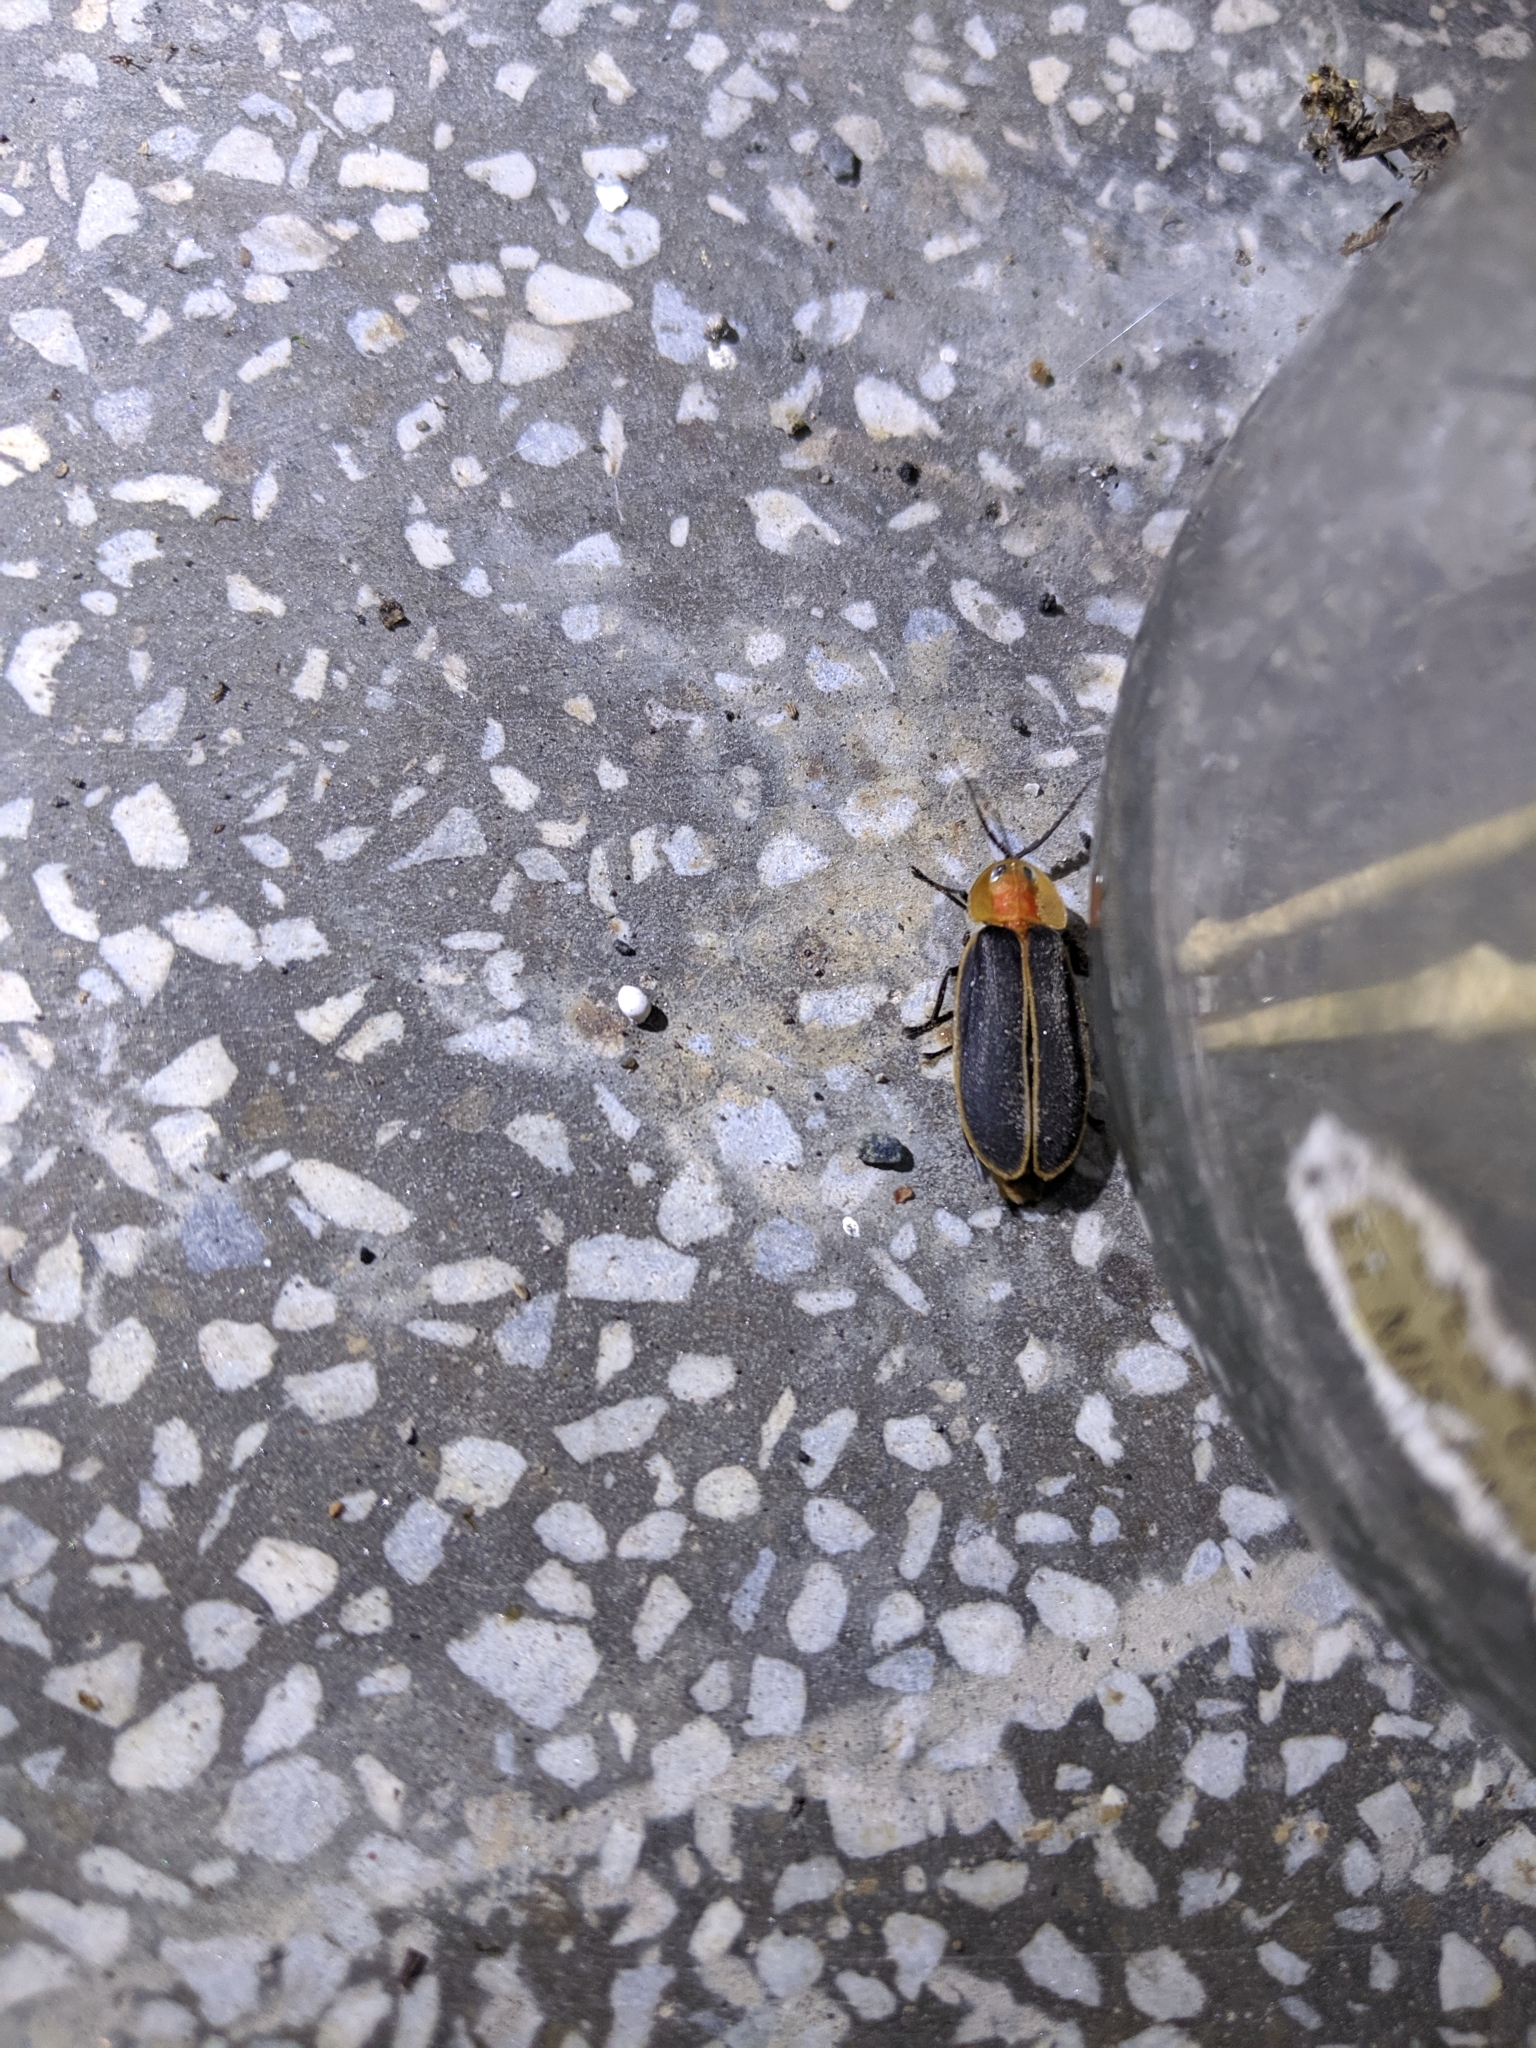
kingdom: Animalia
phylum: Arthropoda
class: Insecta
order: Coleoptera
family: Lampyridae
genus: Pyrocoelia
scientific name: Pyrocoelia praetexta
